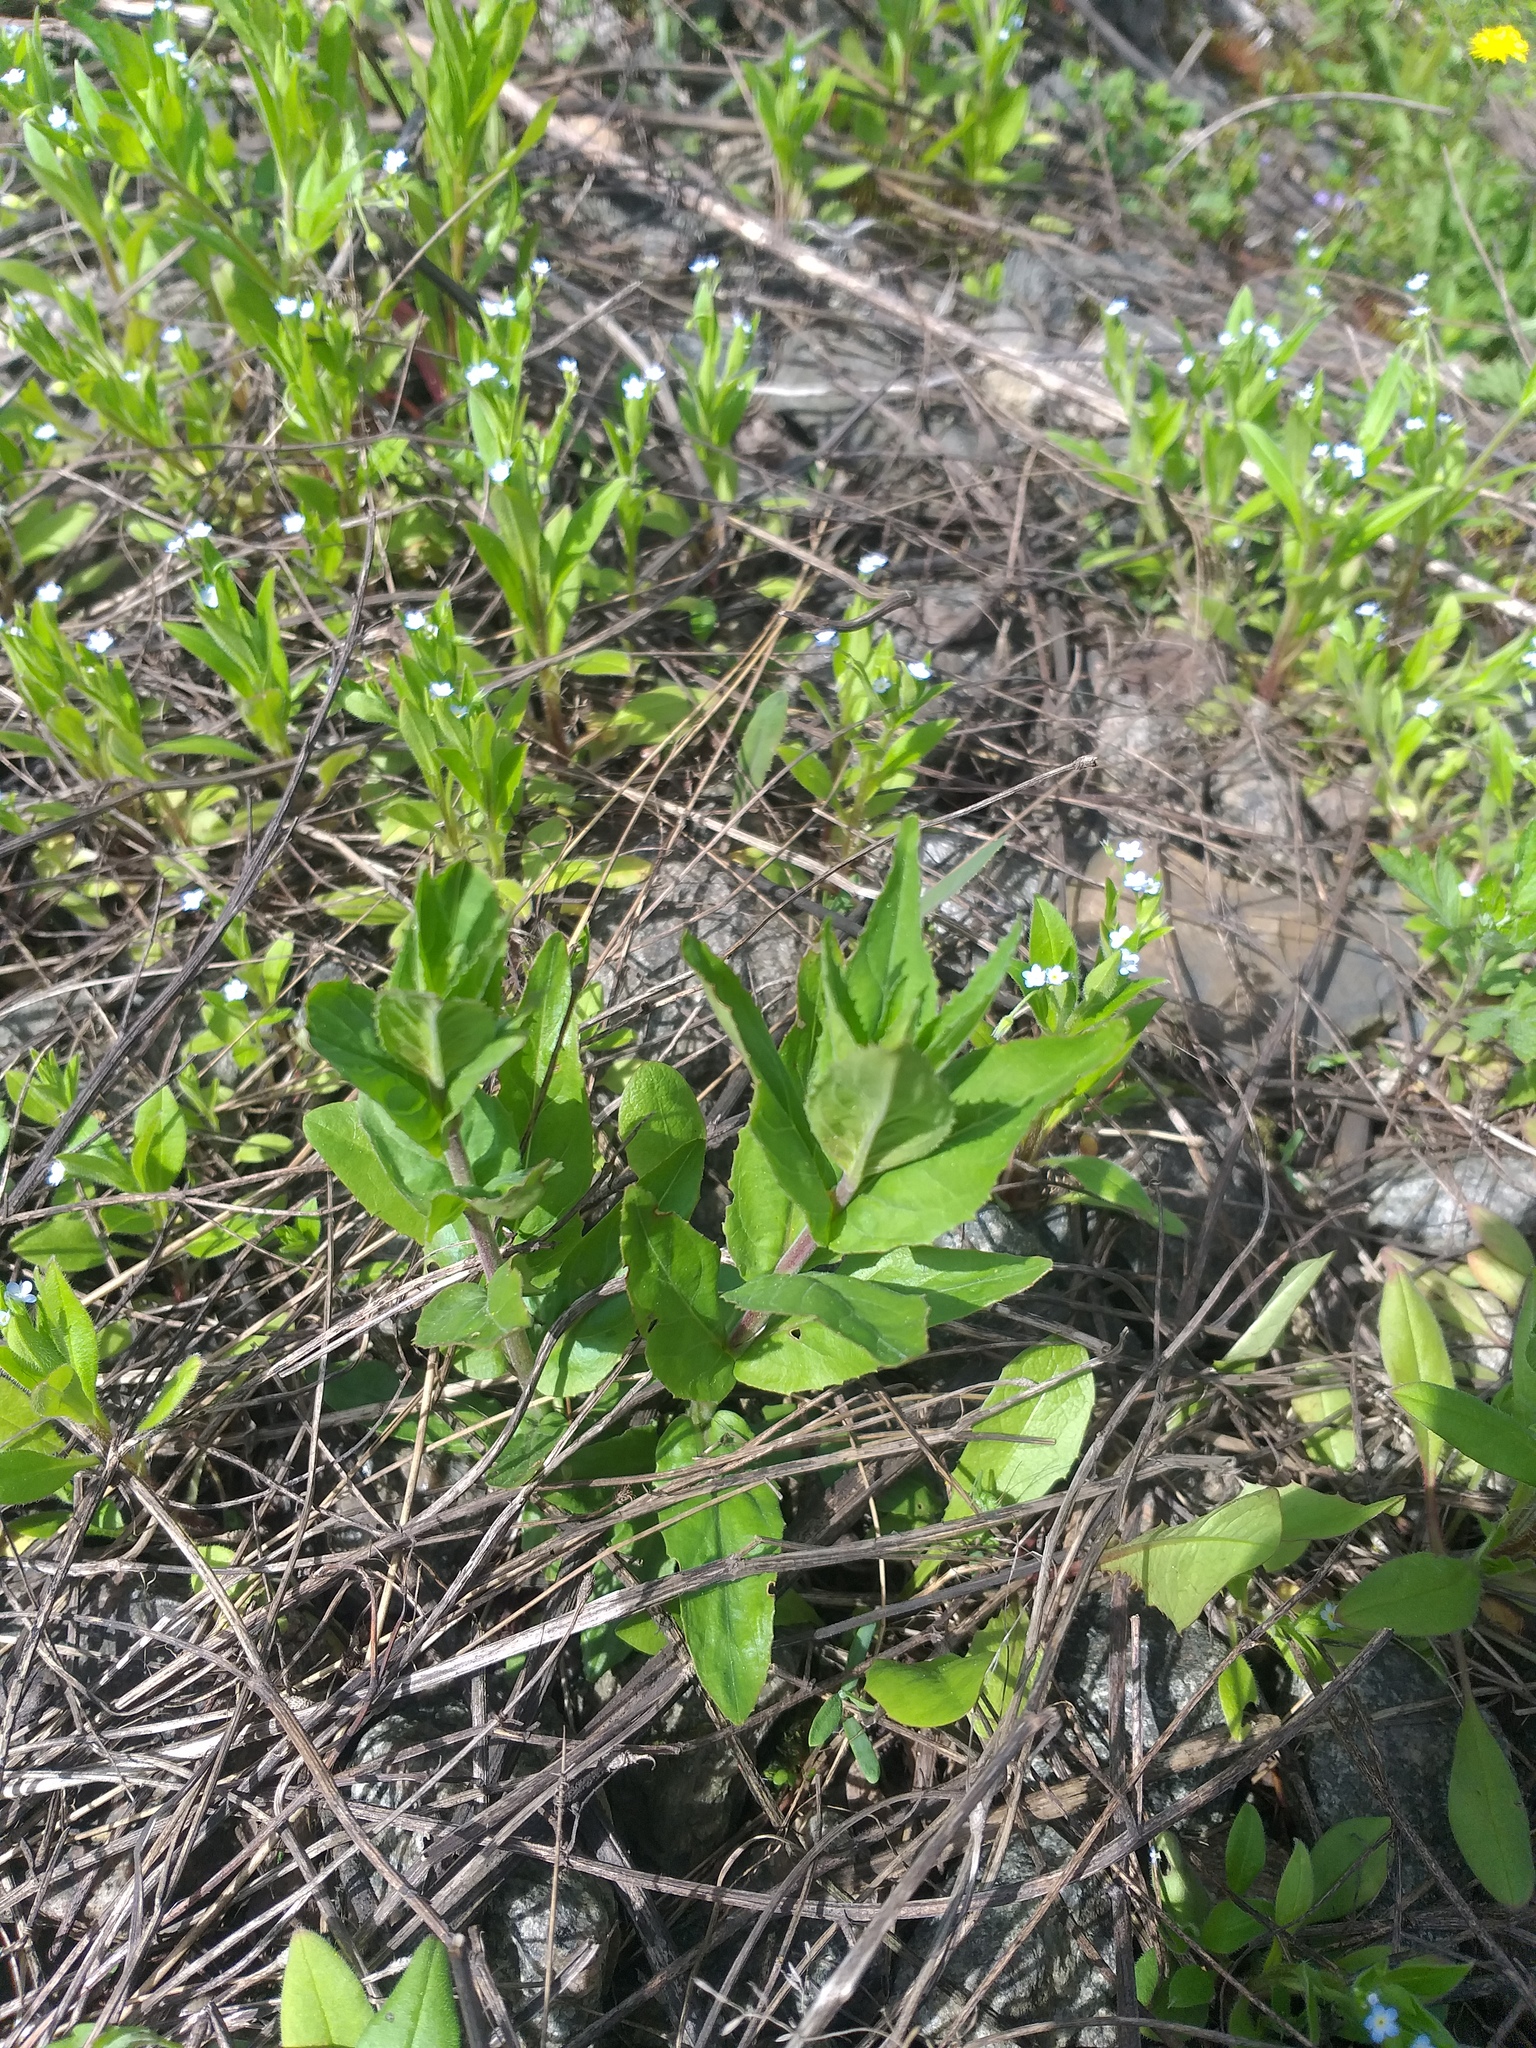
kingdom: Plantae
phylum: Tracheophyta
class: Magnoliopsida
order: Myrtales
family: Onagraceae
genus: Epilobium
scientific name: Epilobium montanum
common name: Broad-leaved willowherb
